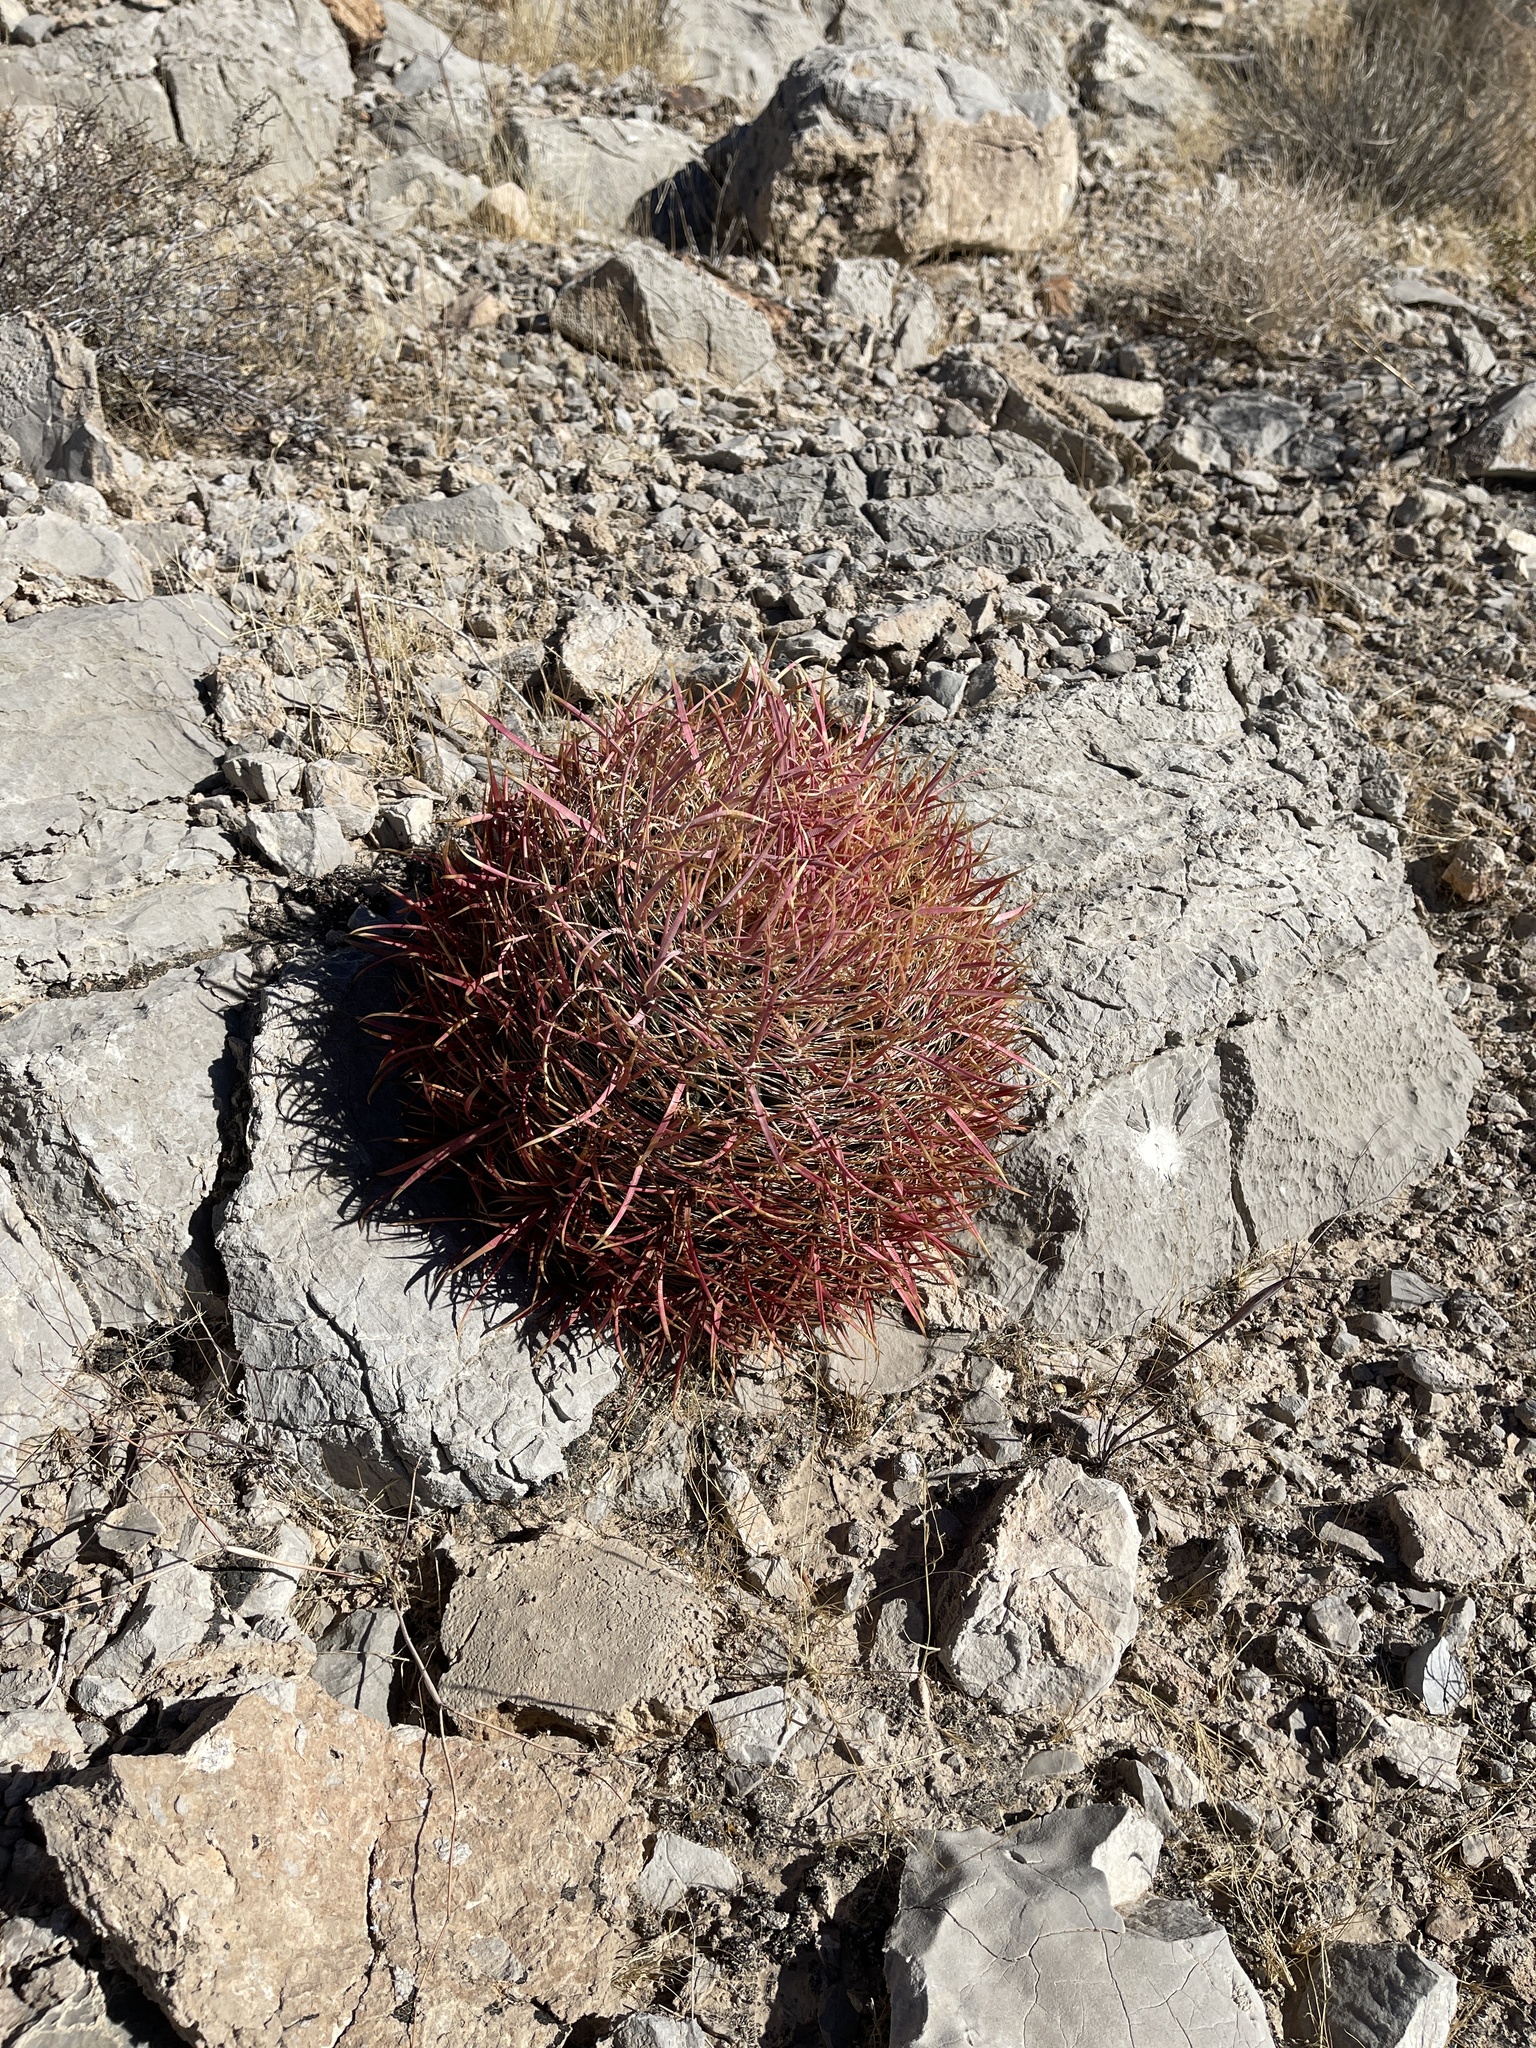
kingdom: Plantae
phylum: Tracheophyta
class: Magnoliopsida
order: Caryophyllales
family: Cactaceae
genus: Ferocactus
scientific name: Ferocactus cylindraceus
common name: California barrel cactus
